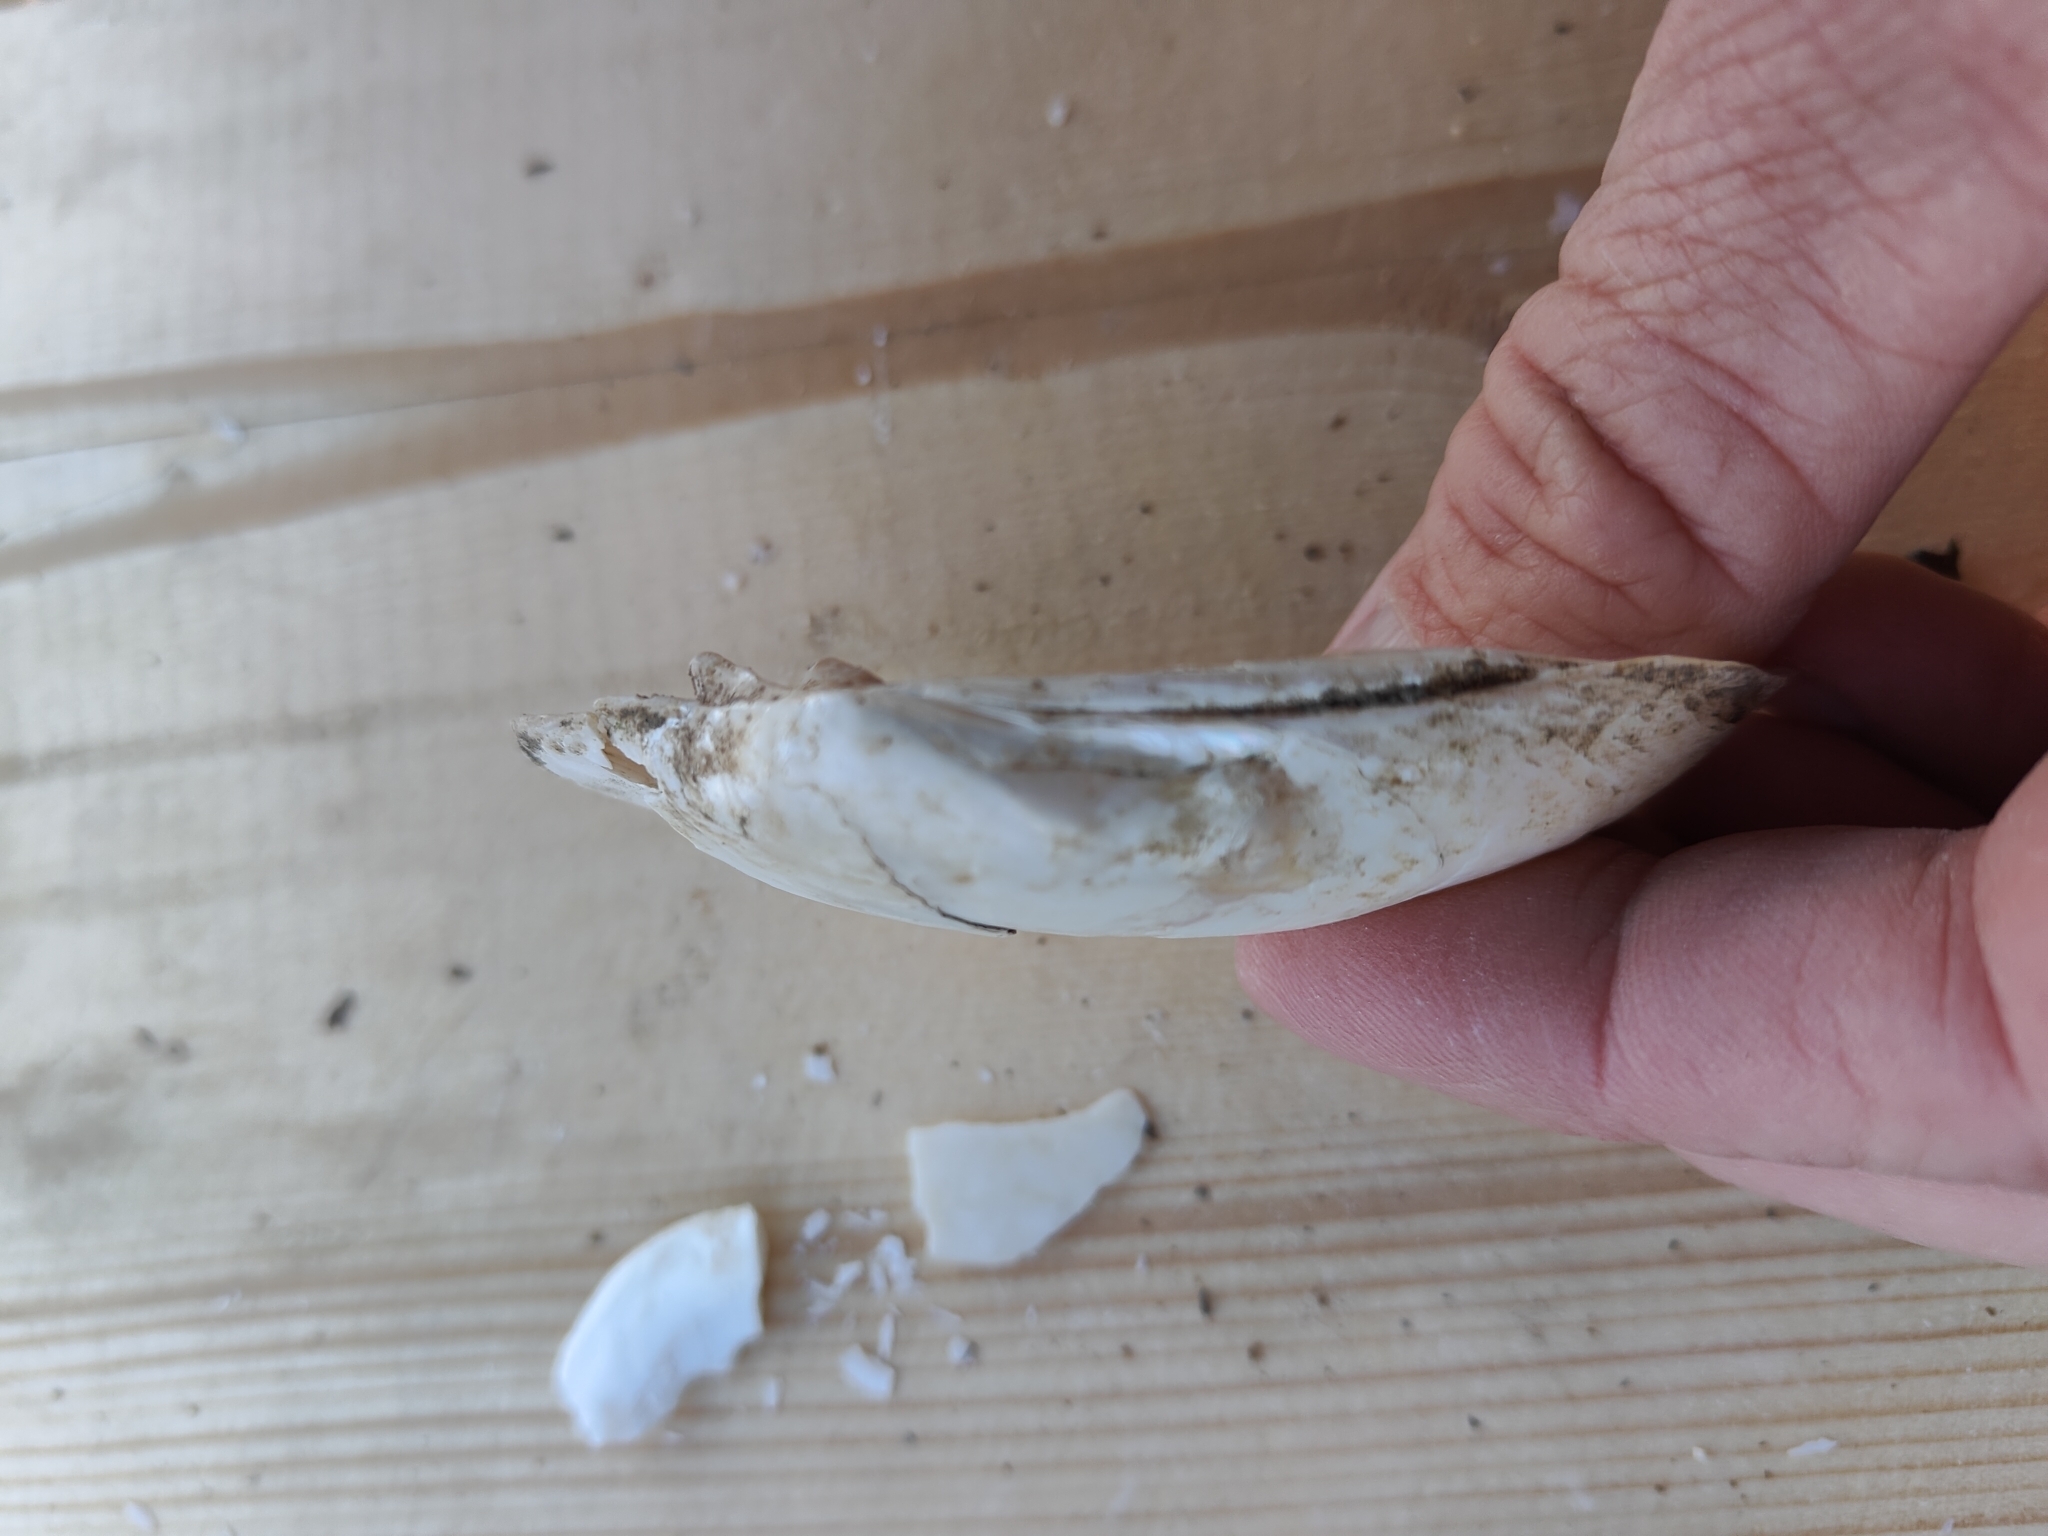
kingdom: Animalia
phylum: Mollusca
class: Bivalvia
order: Unionida
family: Unionidae
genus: Lampsilis
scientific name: Lampsilis siliquoidea
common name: Fatmucket
